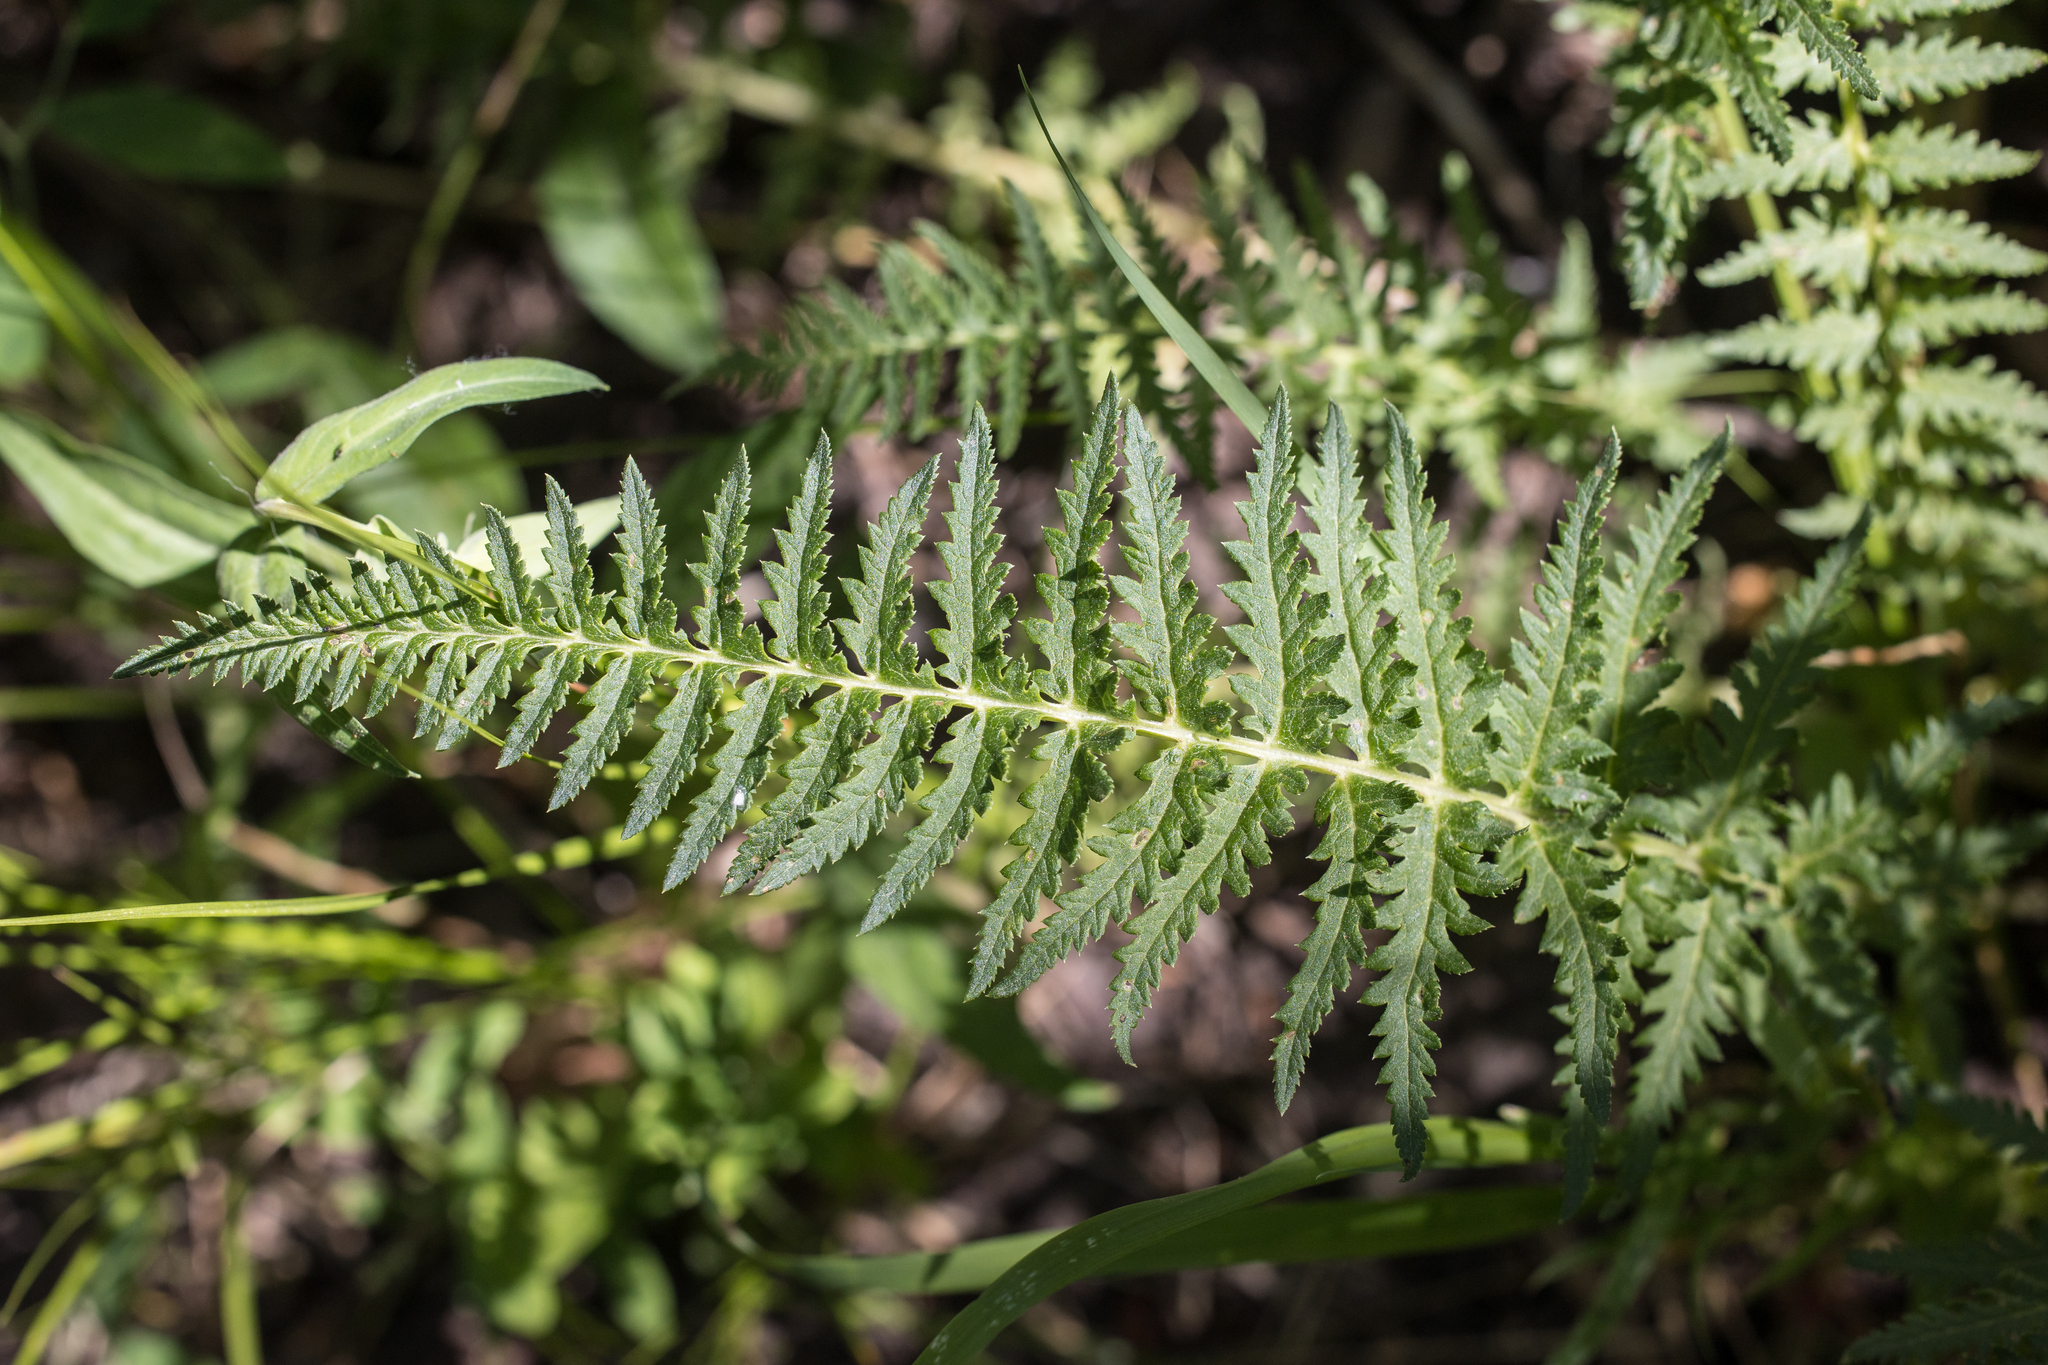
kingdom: Plantae
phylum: Tracheophyta
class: Magnoliopsida
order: Lamiales
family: Orobanchaceae
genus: Pedicularis
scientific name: Pedicularis procera
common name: Gray's lousewort
